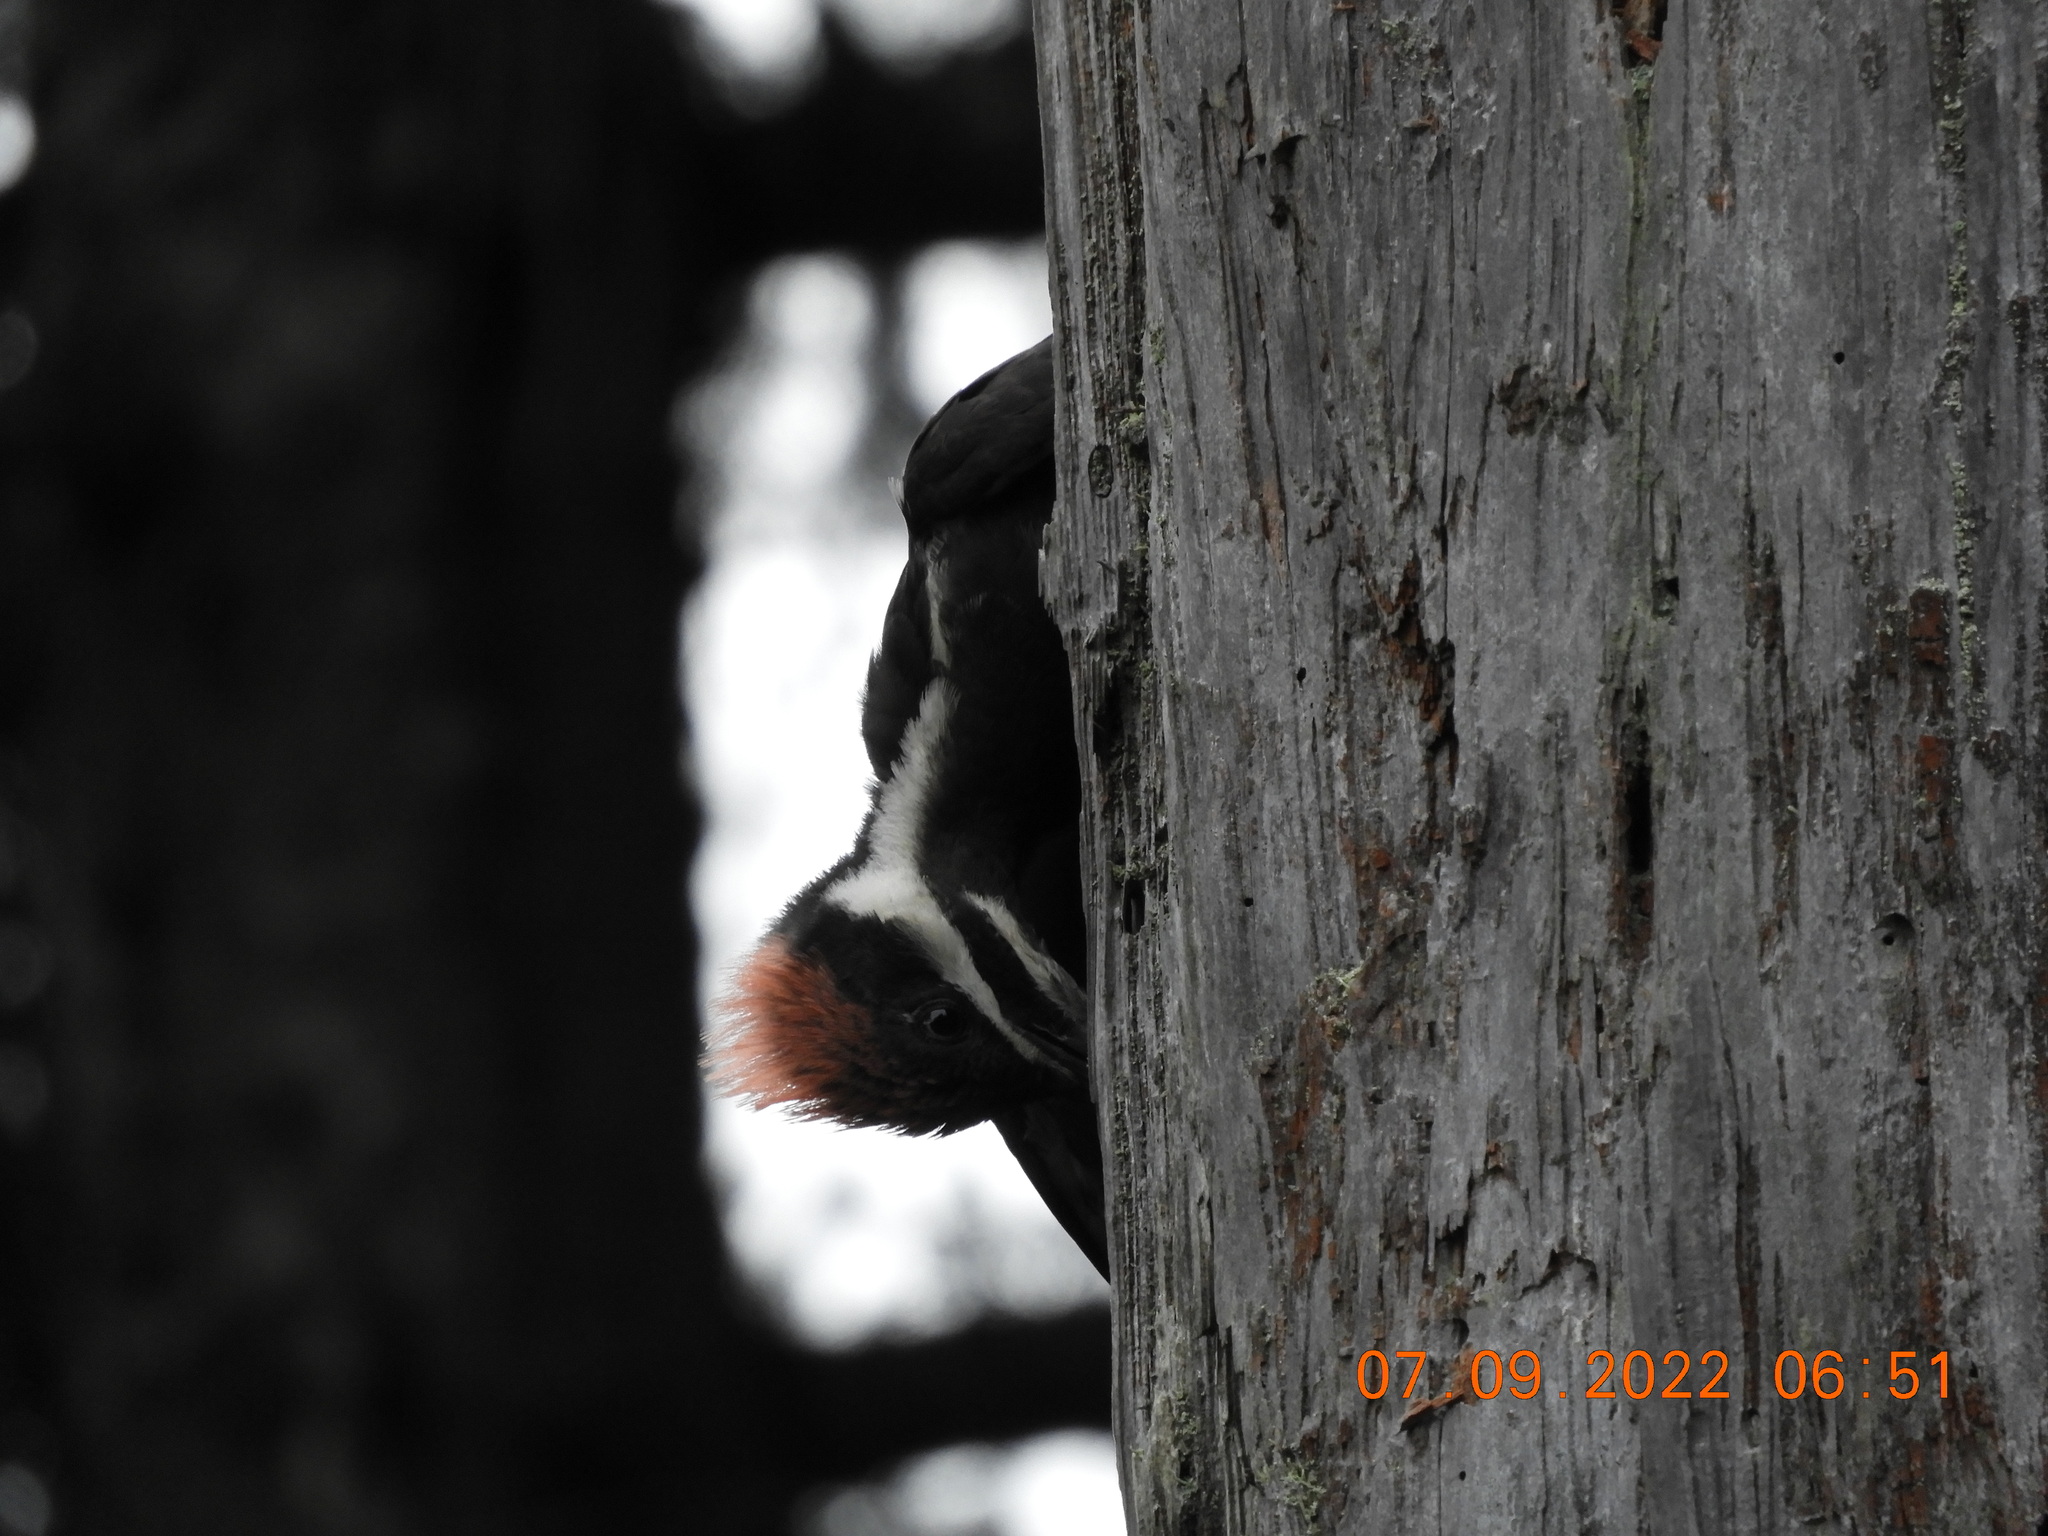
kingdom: Animalia
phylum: Chordata
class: Aves
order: Piciformes
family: Picidae
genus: Dryocopus
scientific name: Dryocopus pileatus
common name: Pileated woodpecker
